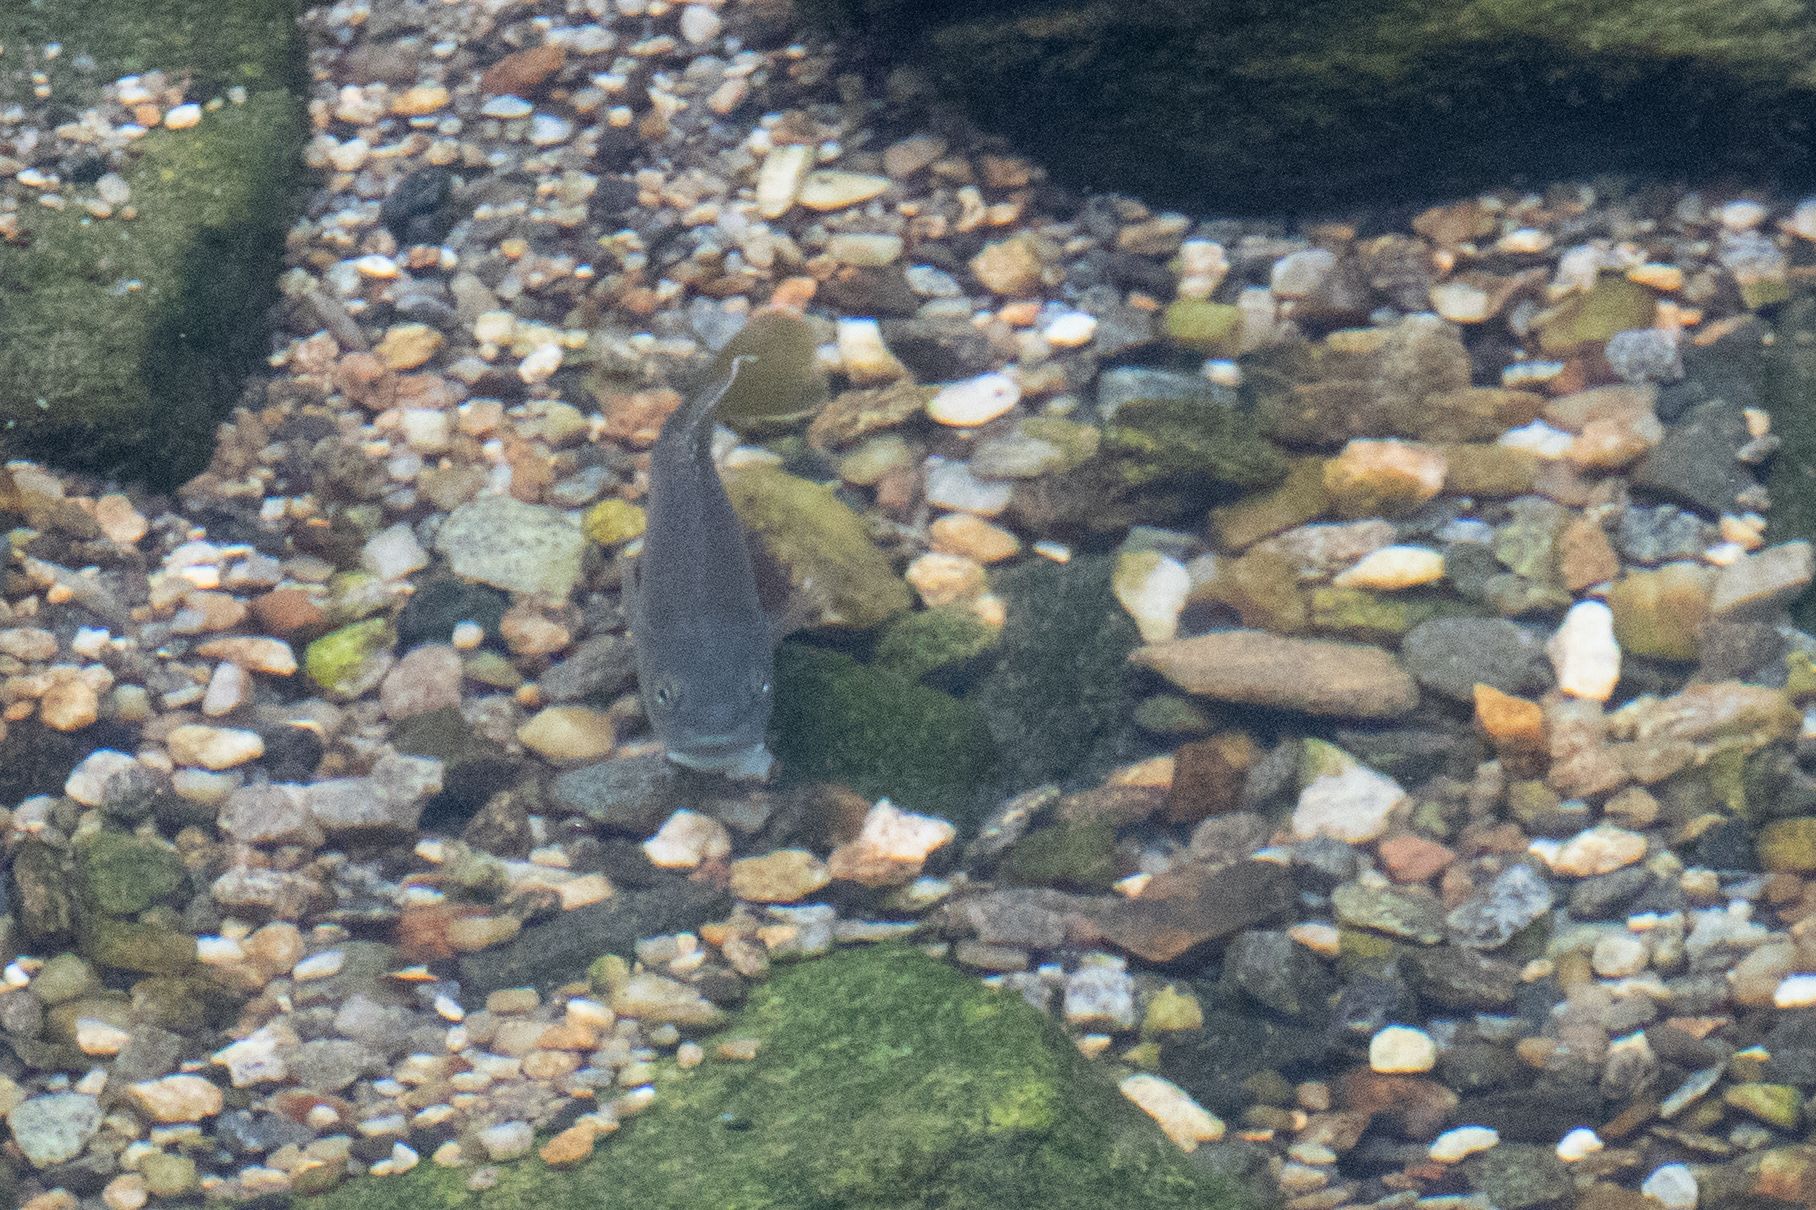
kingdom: Animalia
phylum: Chordata
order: Perciformes
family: Centrarchidae
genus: Lepomis
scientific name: Lepomis cyanellus
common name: Green sunfish
